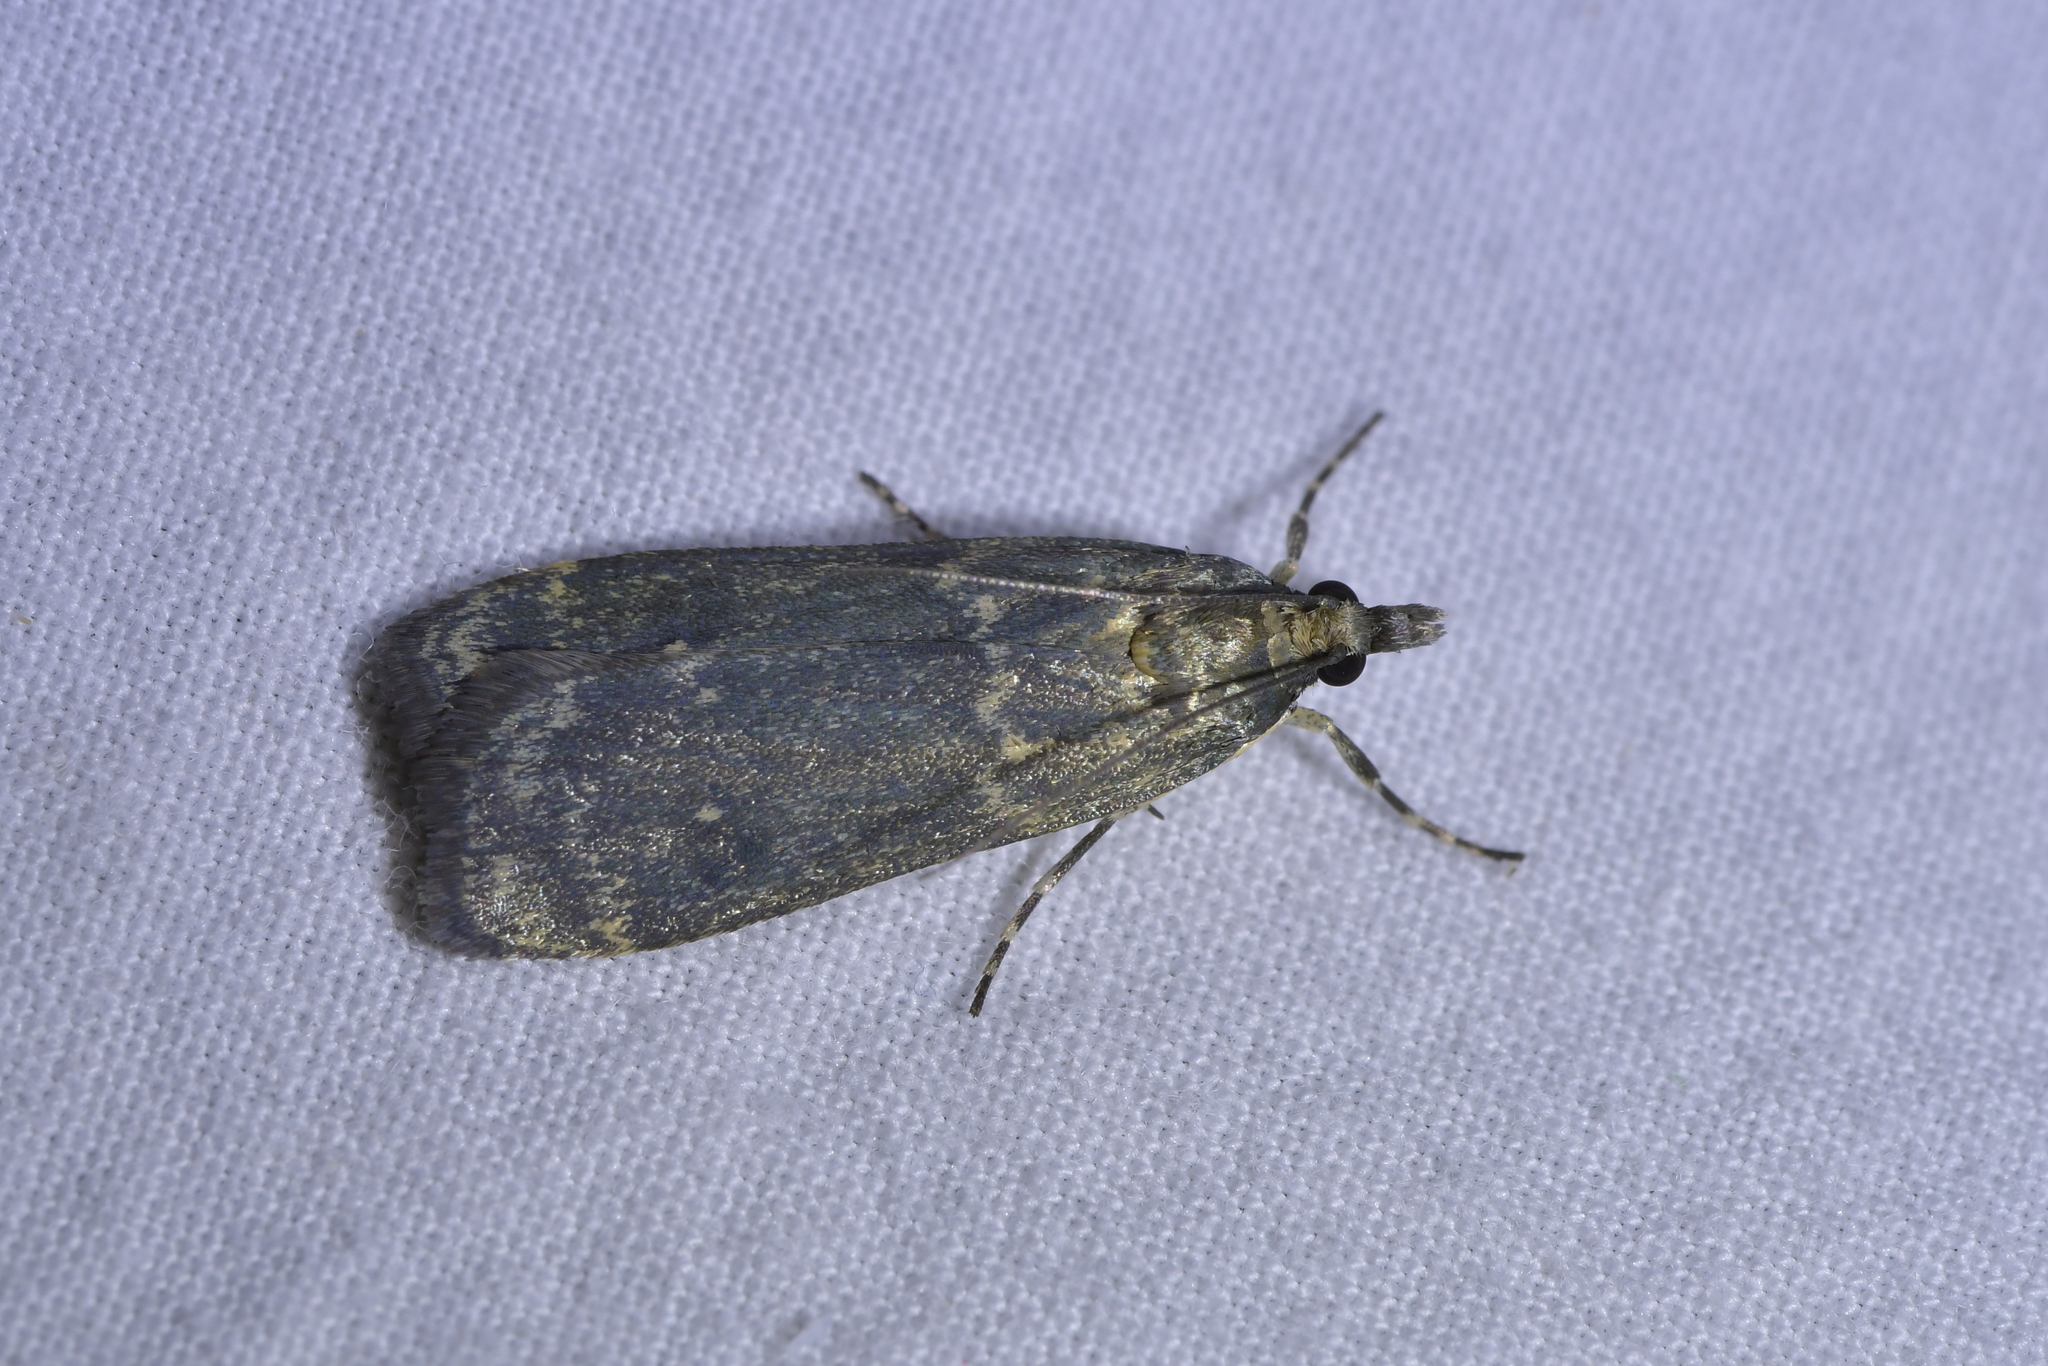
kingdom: Animalia
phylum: Arthropoda
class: Insecta
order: Lepidoptera
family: Crambidae
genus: Eudonia
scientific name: Eudonia cataxesta
